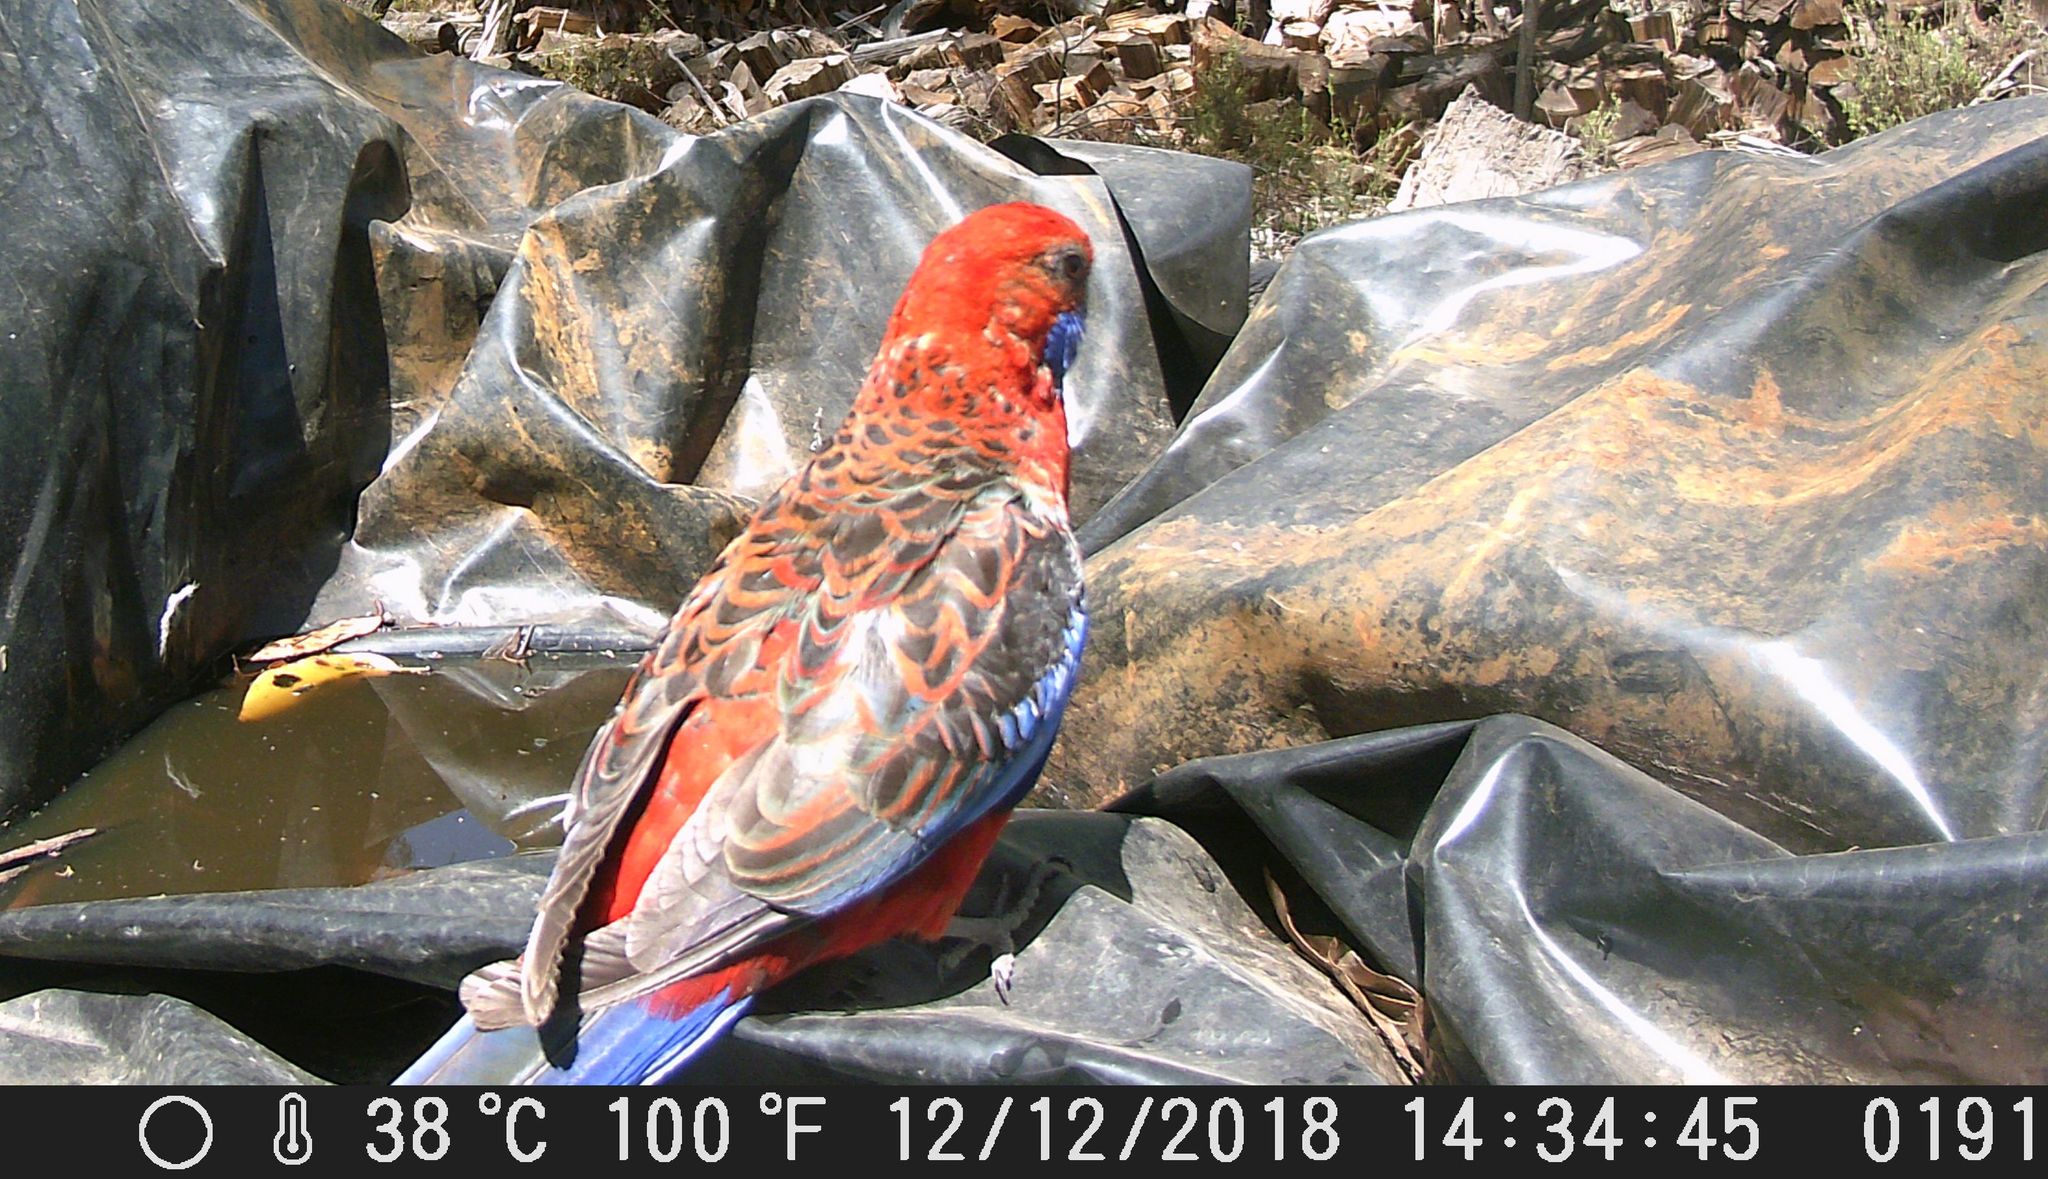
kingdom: Animalia
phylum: Chordata
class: Aves
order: Psittaciformes
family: Psittacidae
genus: Platycercus
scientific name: Platycercus elegans
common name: Crimson rosella
